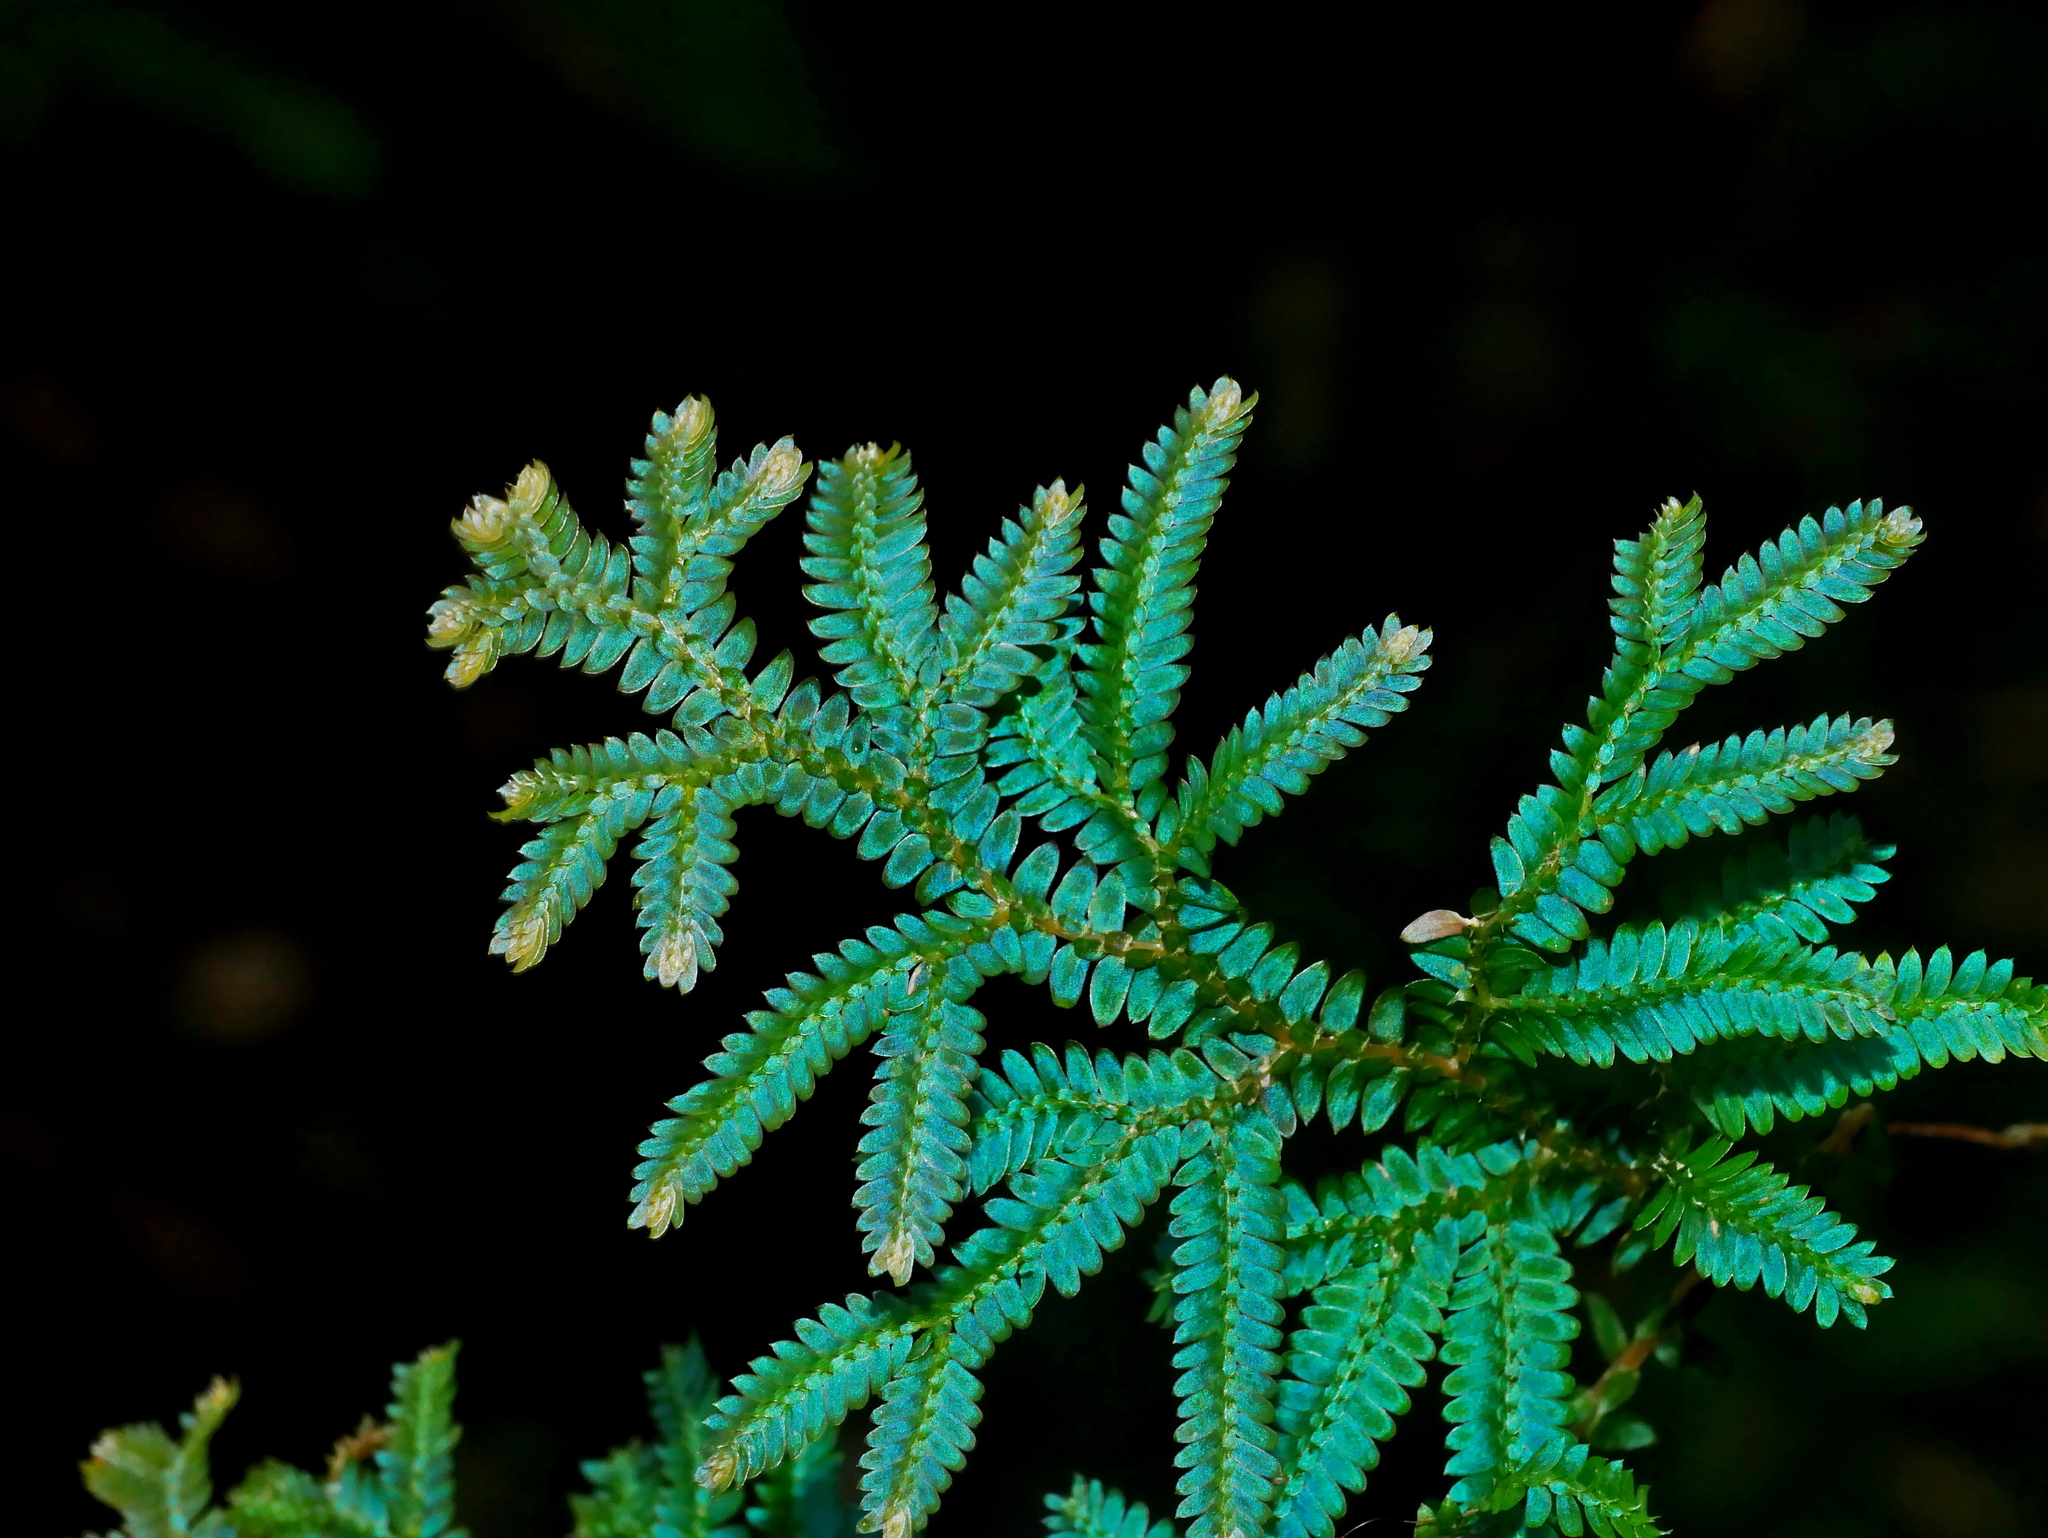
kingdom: Plantae
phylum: Tracheophyta
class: Lycopodiopsida
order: Selaginellales
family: Selaginellaceae
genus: Selaginella
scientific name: Selaginella uncinata
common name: Blue spikemoss
